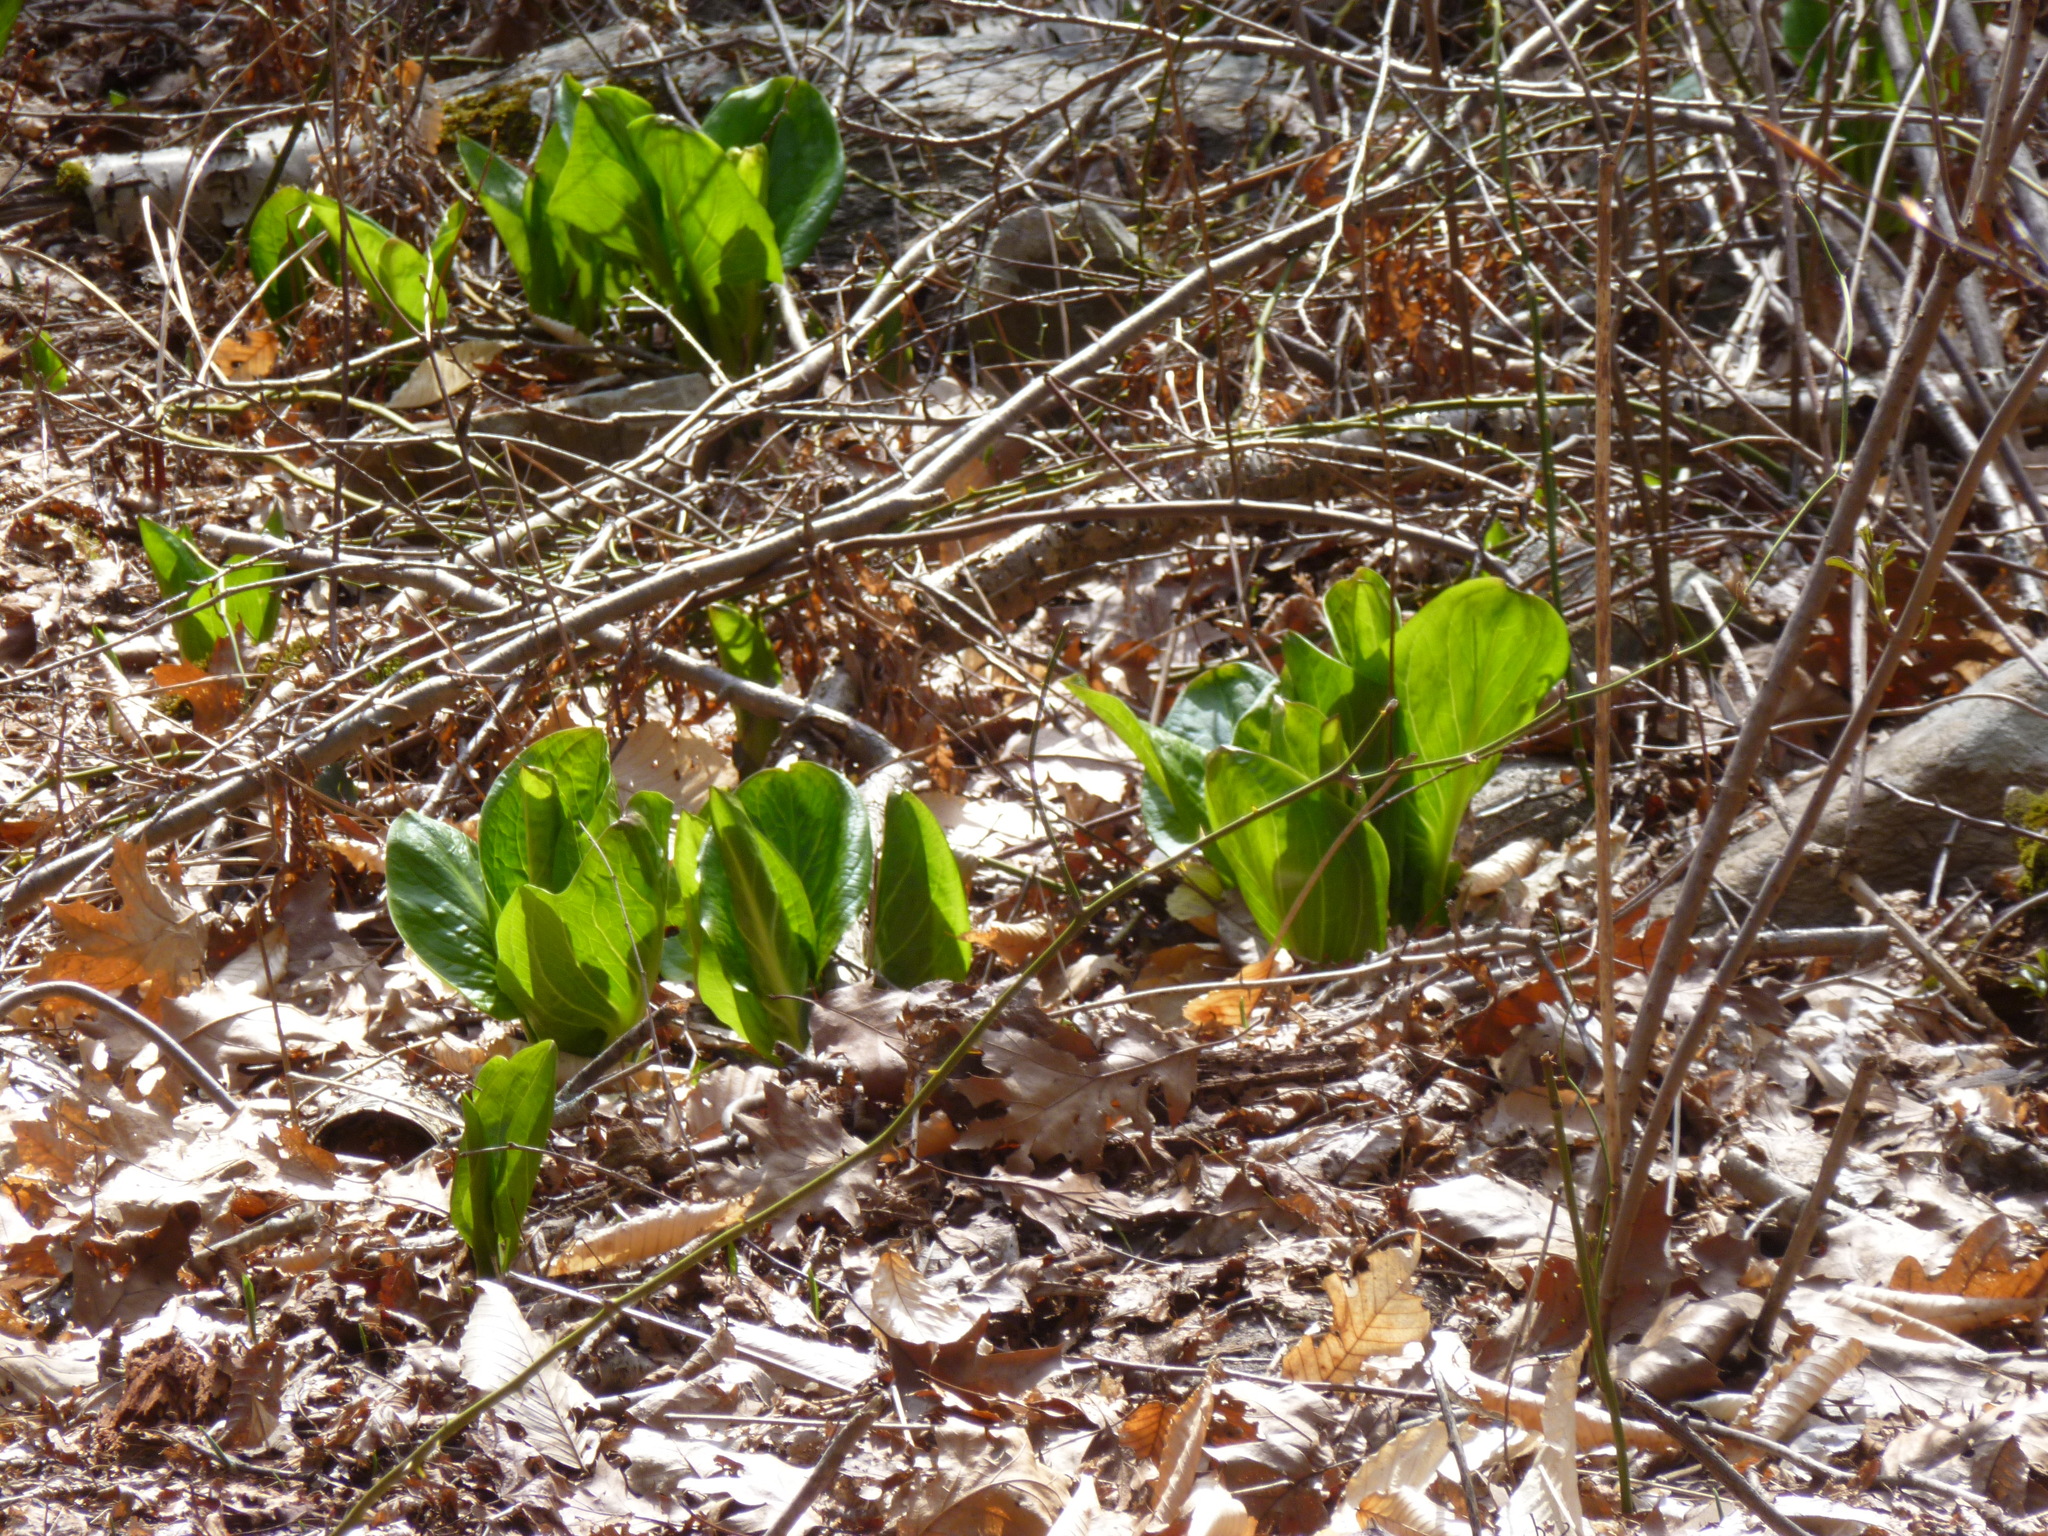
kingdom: Plantae
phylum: Tracheophyta
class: Liliopsida
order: Alismatales
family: Araceae
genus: Symplocarpus
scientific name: Symplocarpus foetidus
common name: Eastern skunk cabbage
